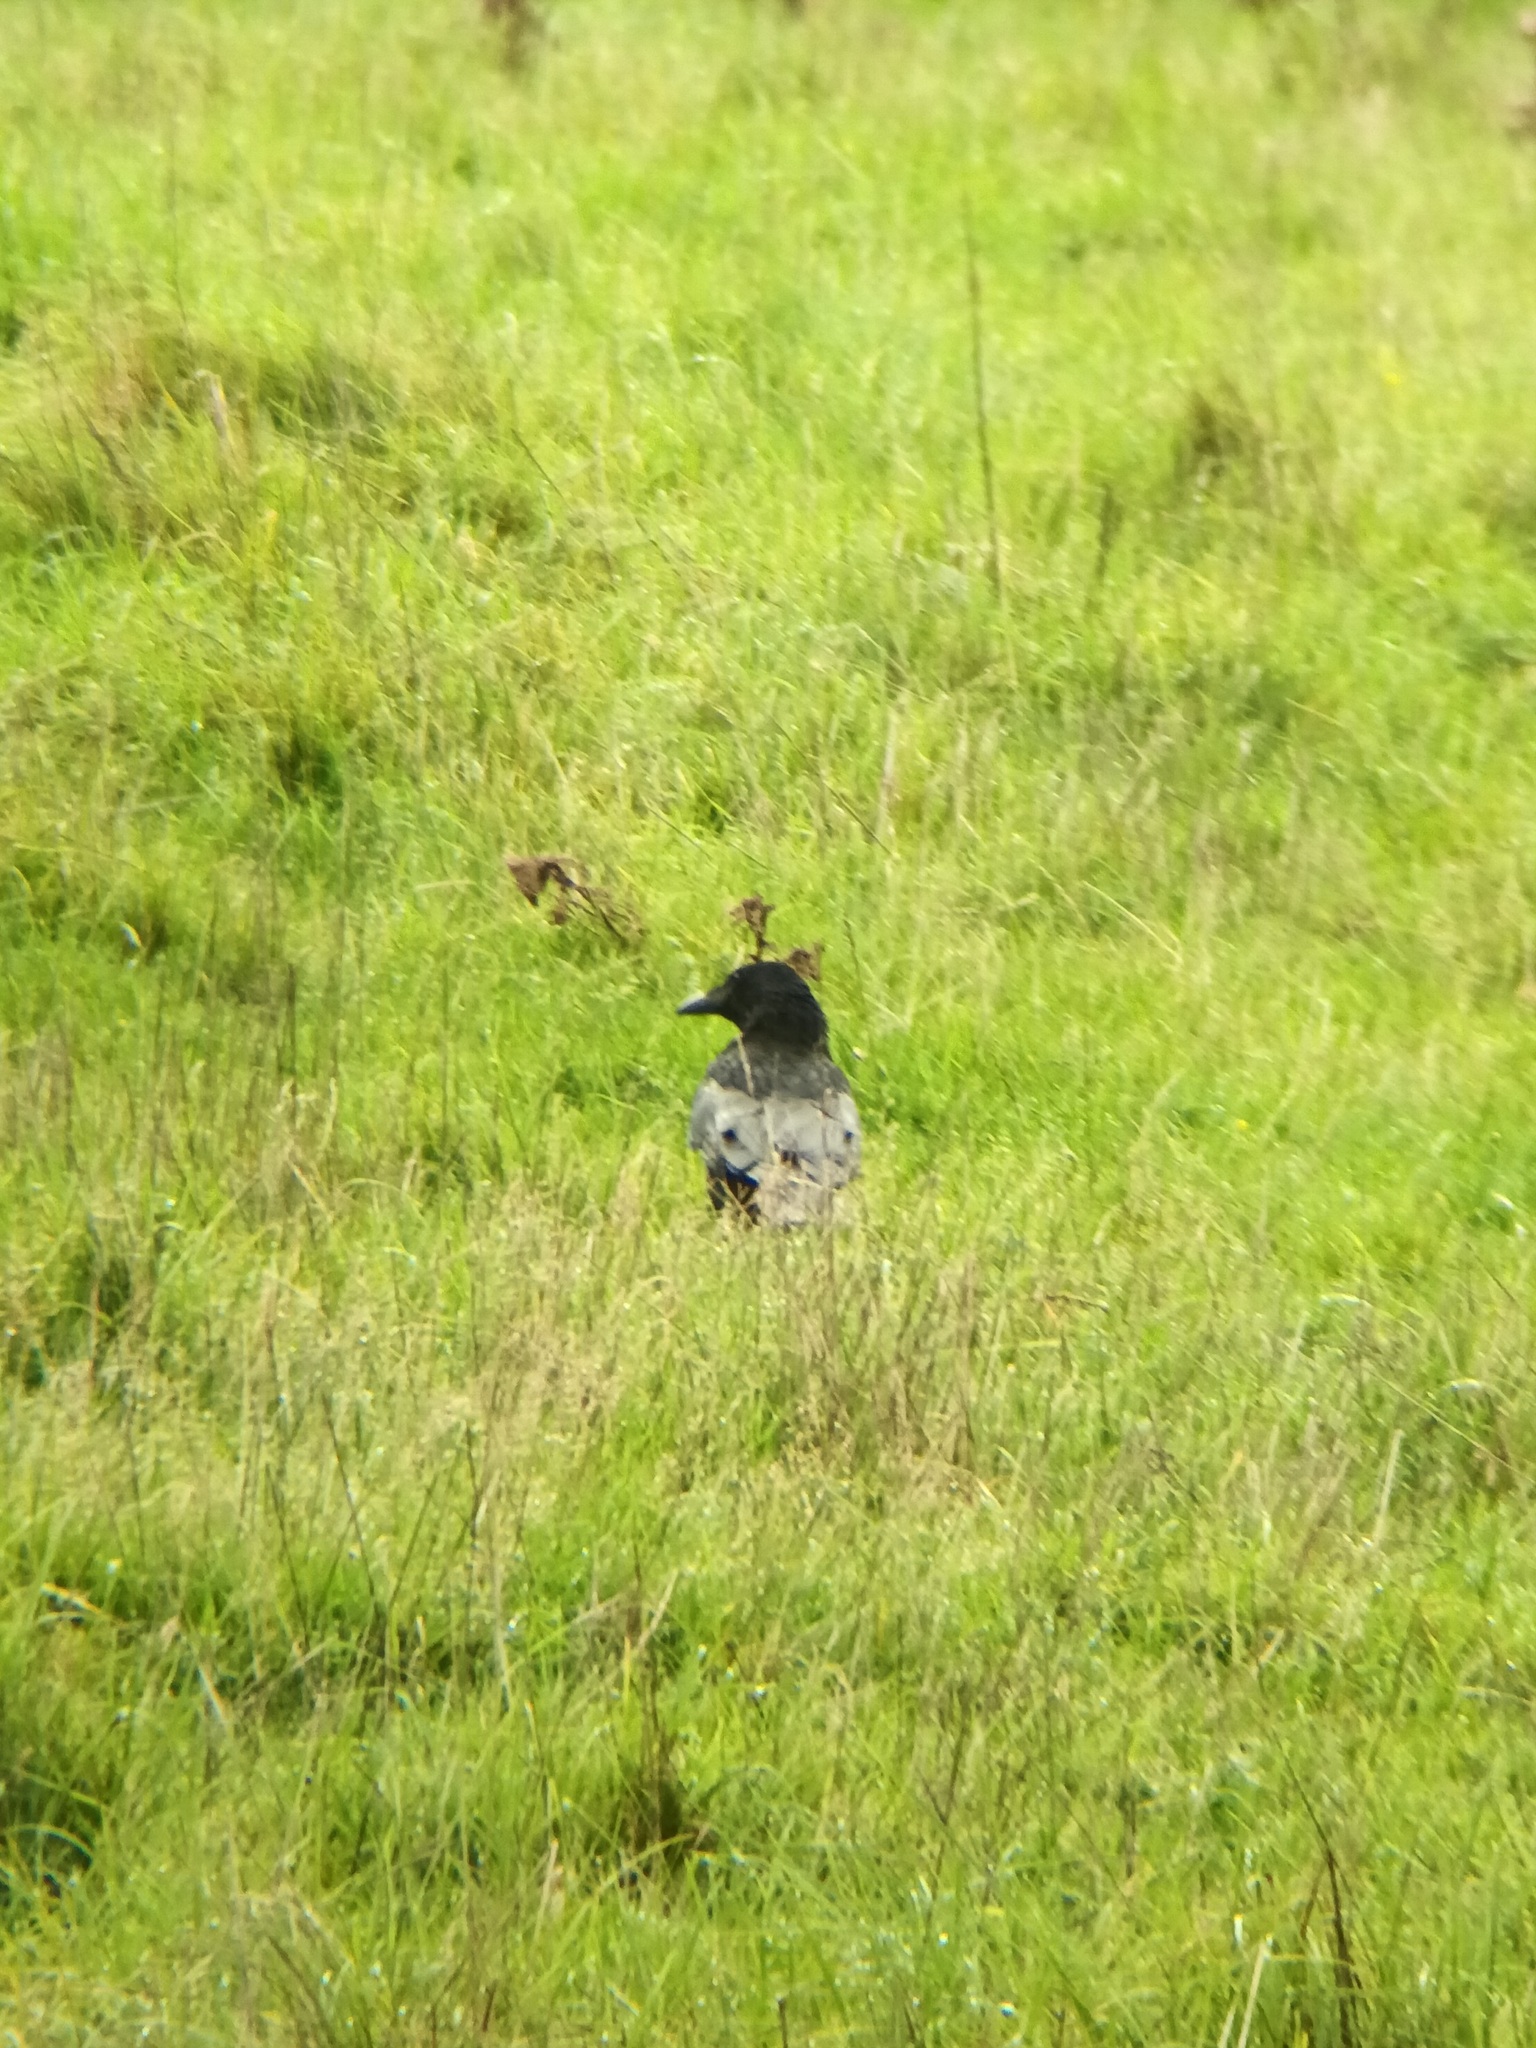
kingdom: Animalia
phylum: Chordata
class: Aves
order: Passeriformes
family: Corvidae
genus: Corvus
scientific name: Corvus corone
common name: Carrion crow
